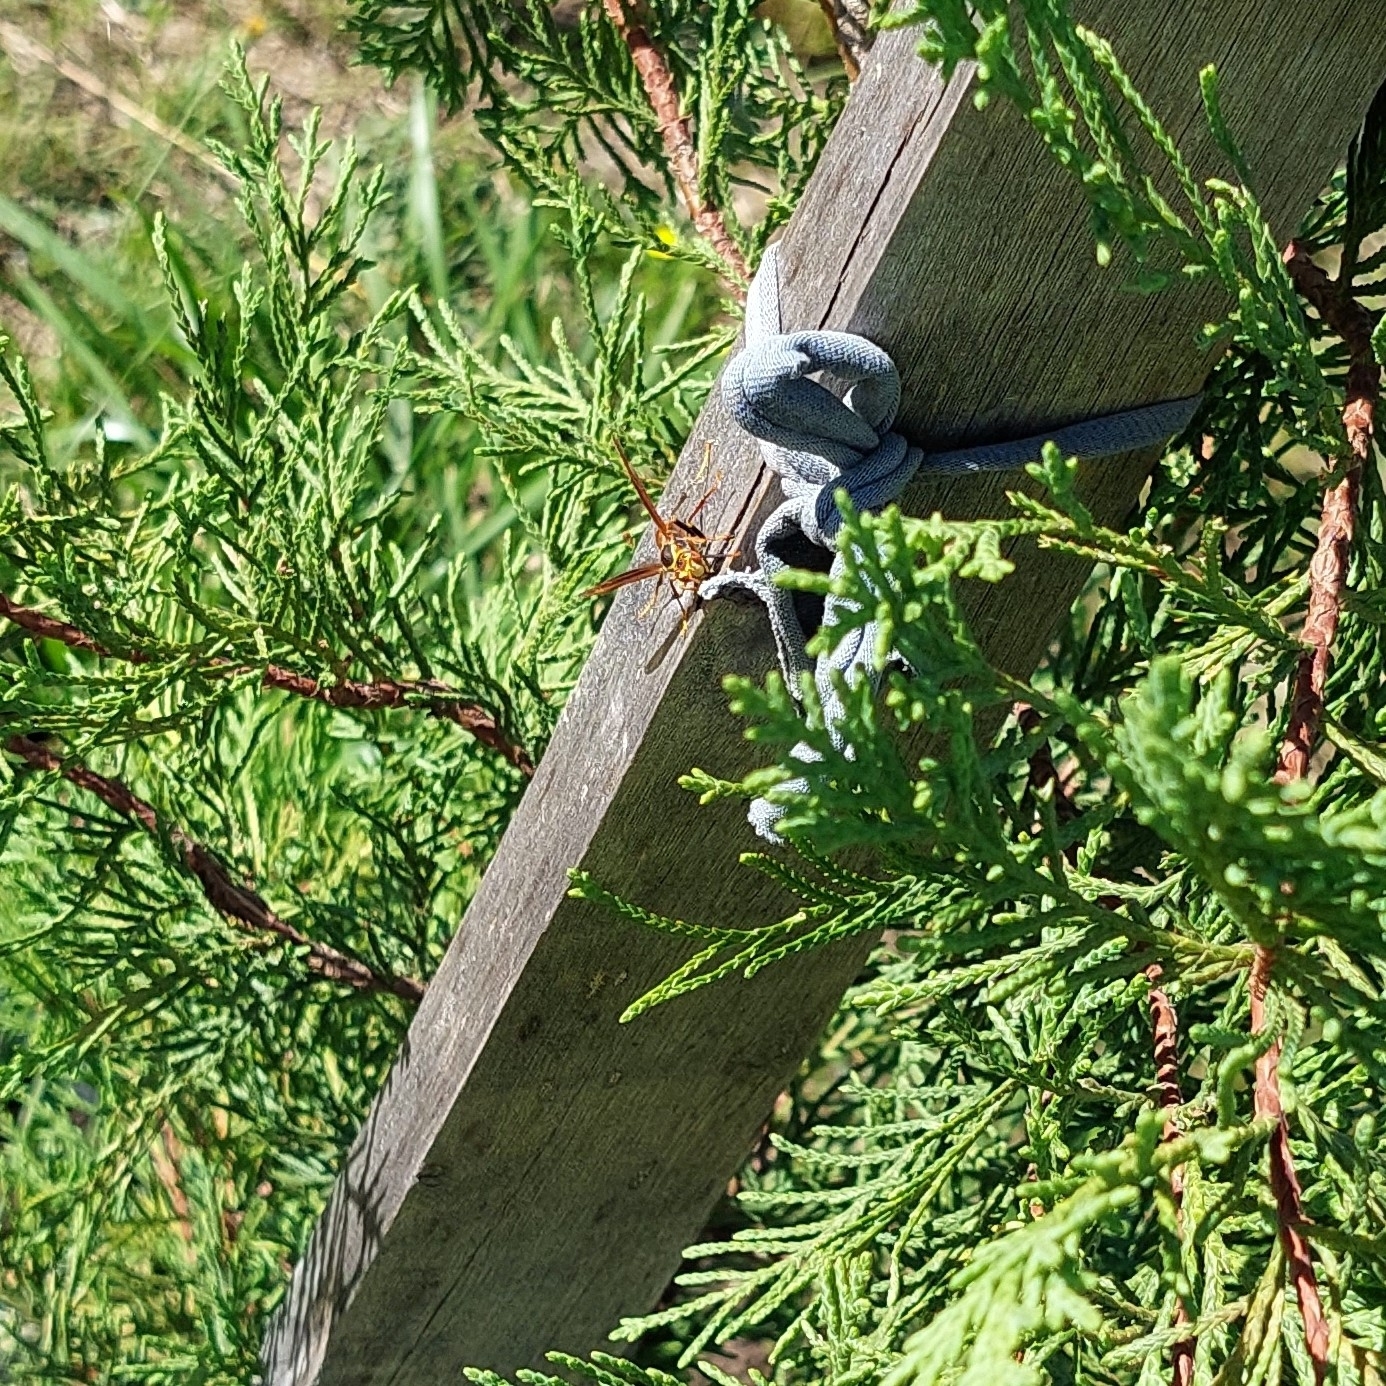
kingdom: Animalia
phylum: Arthropoda
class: Insecta
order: Hymenoptera
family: Eumenidae
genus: Polistes
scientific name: Polistes buyssoni
